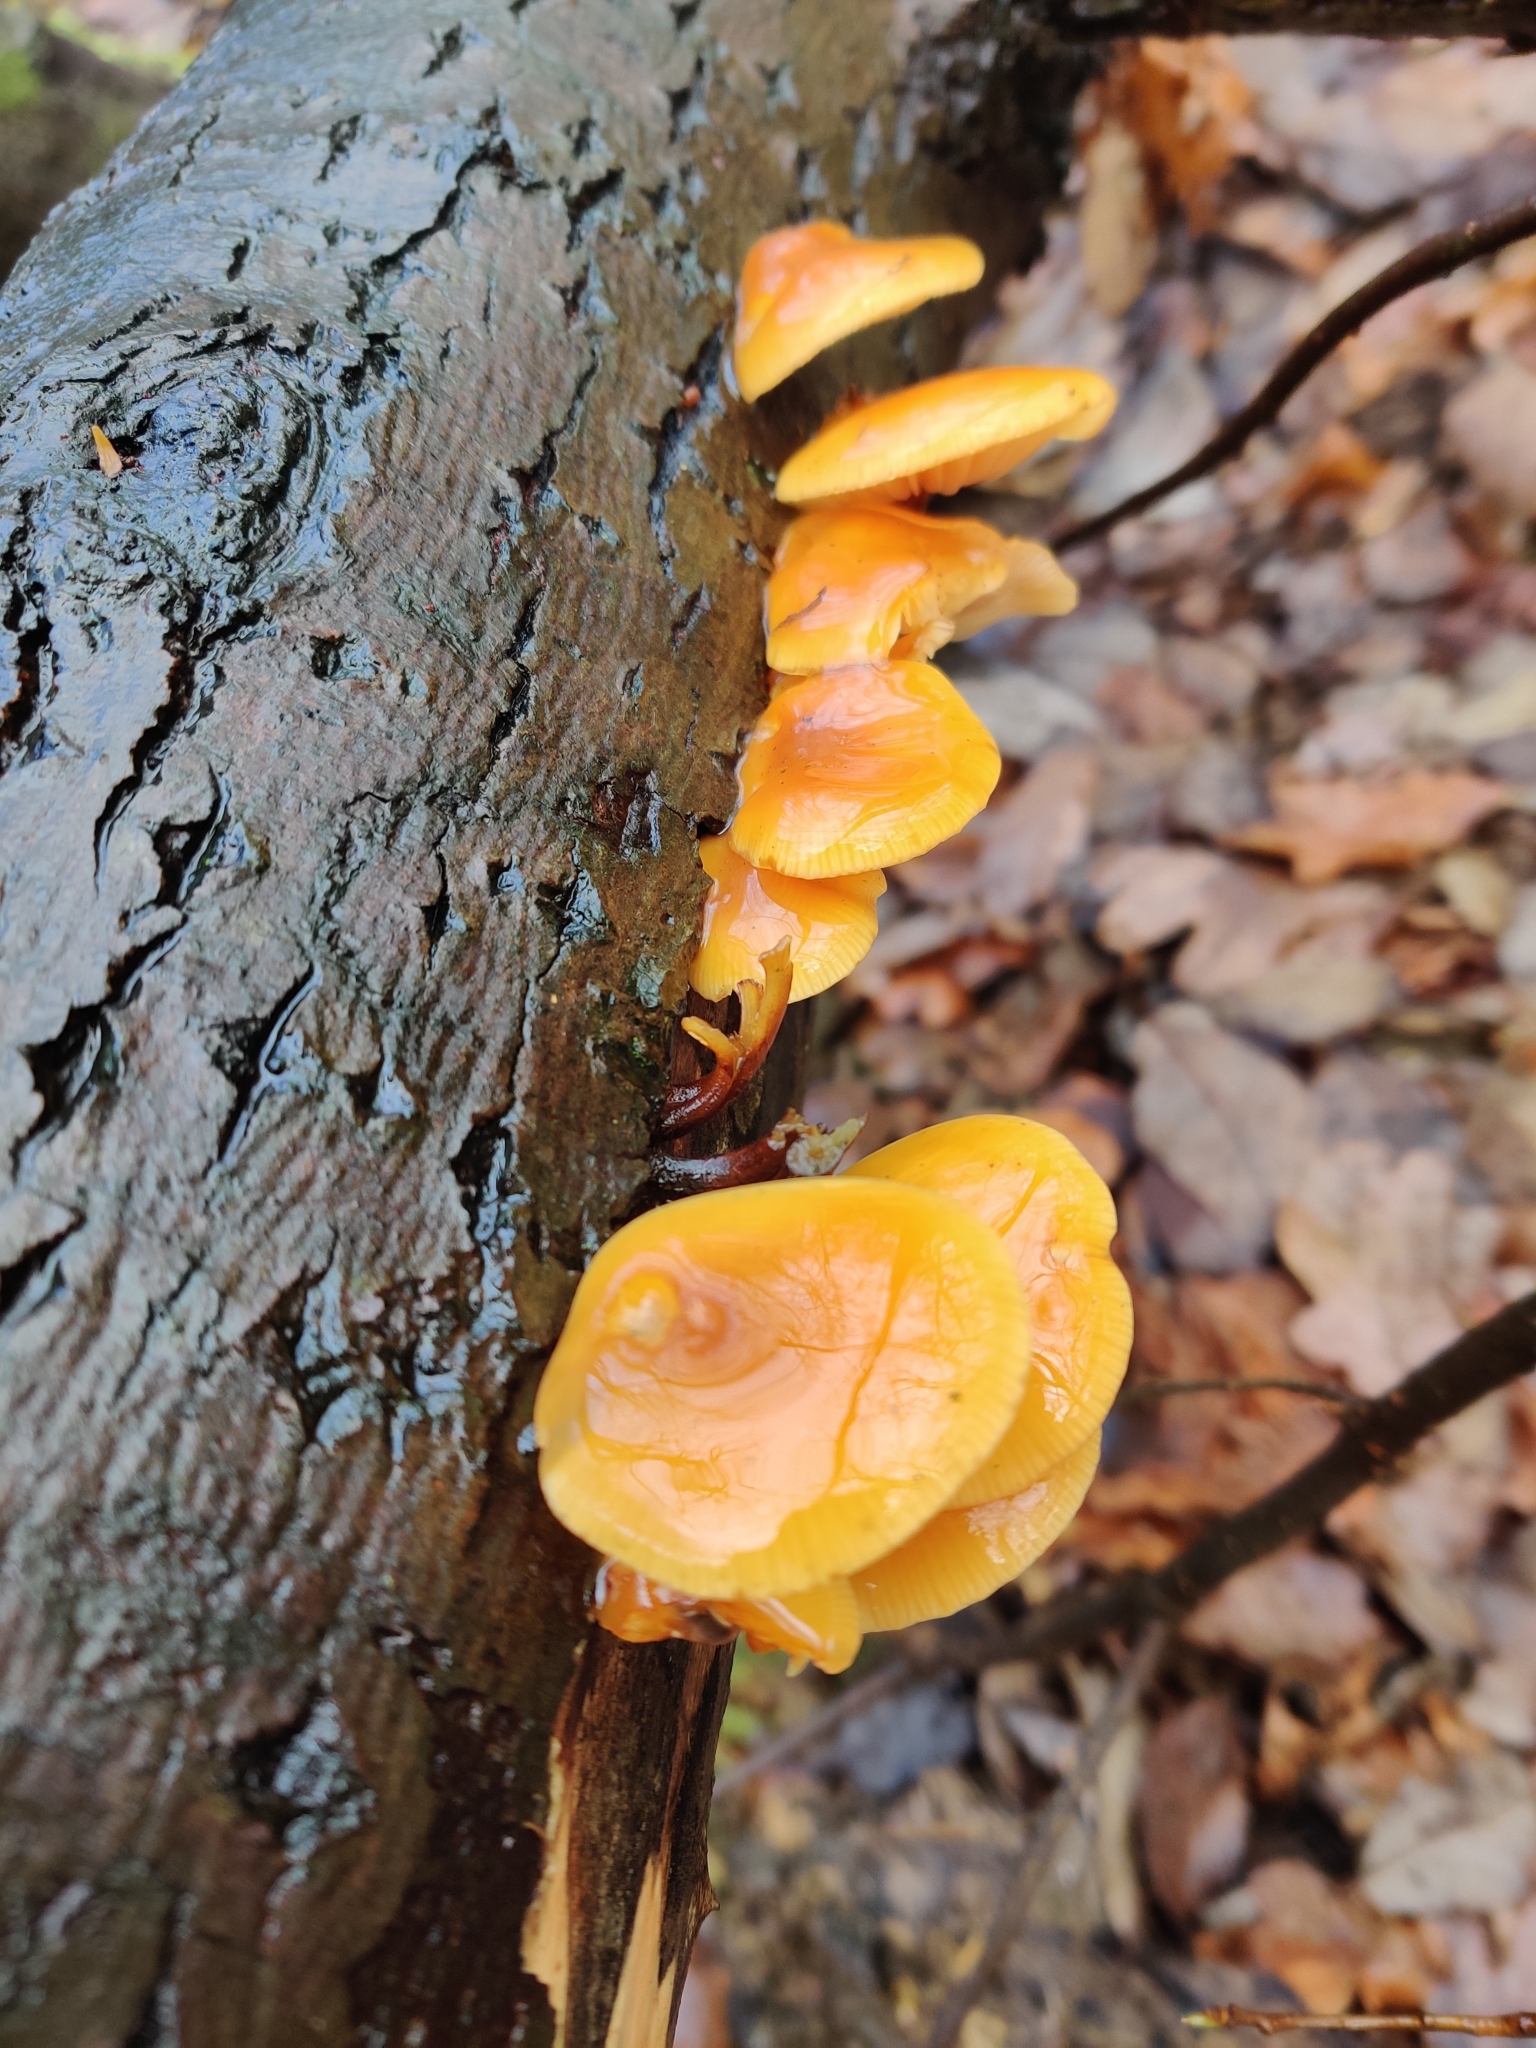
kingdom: Fungi
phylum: Basidiomycota
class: Agaricomycetes
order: Agaricales
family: Physalacriaceae
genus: Flammulina
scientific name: Flammulina
